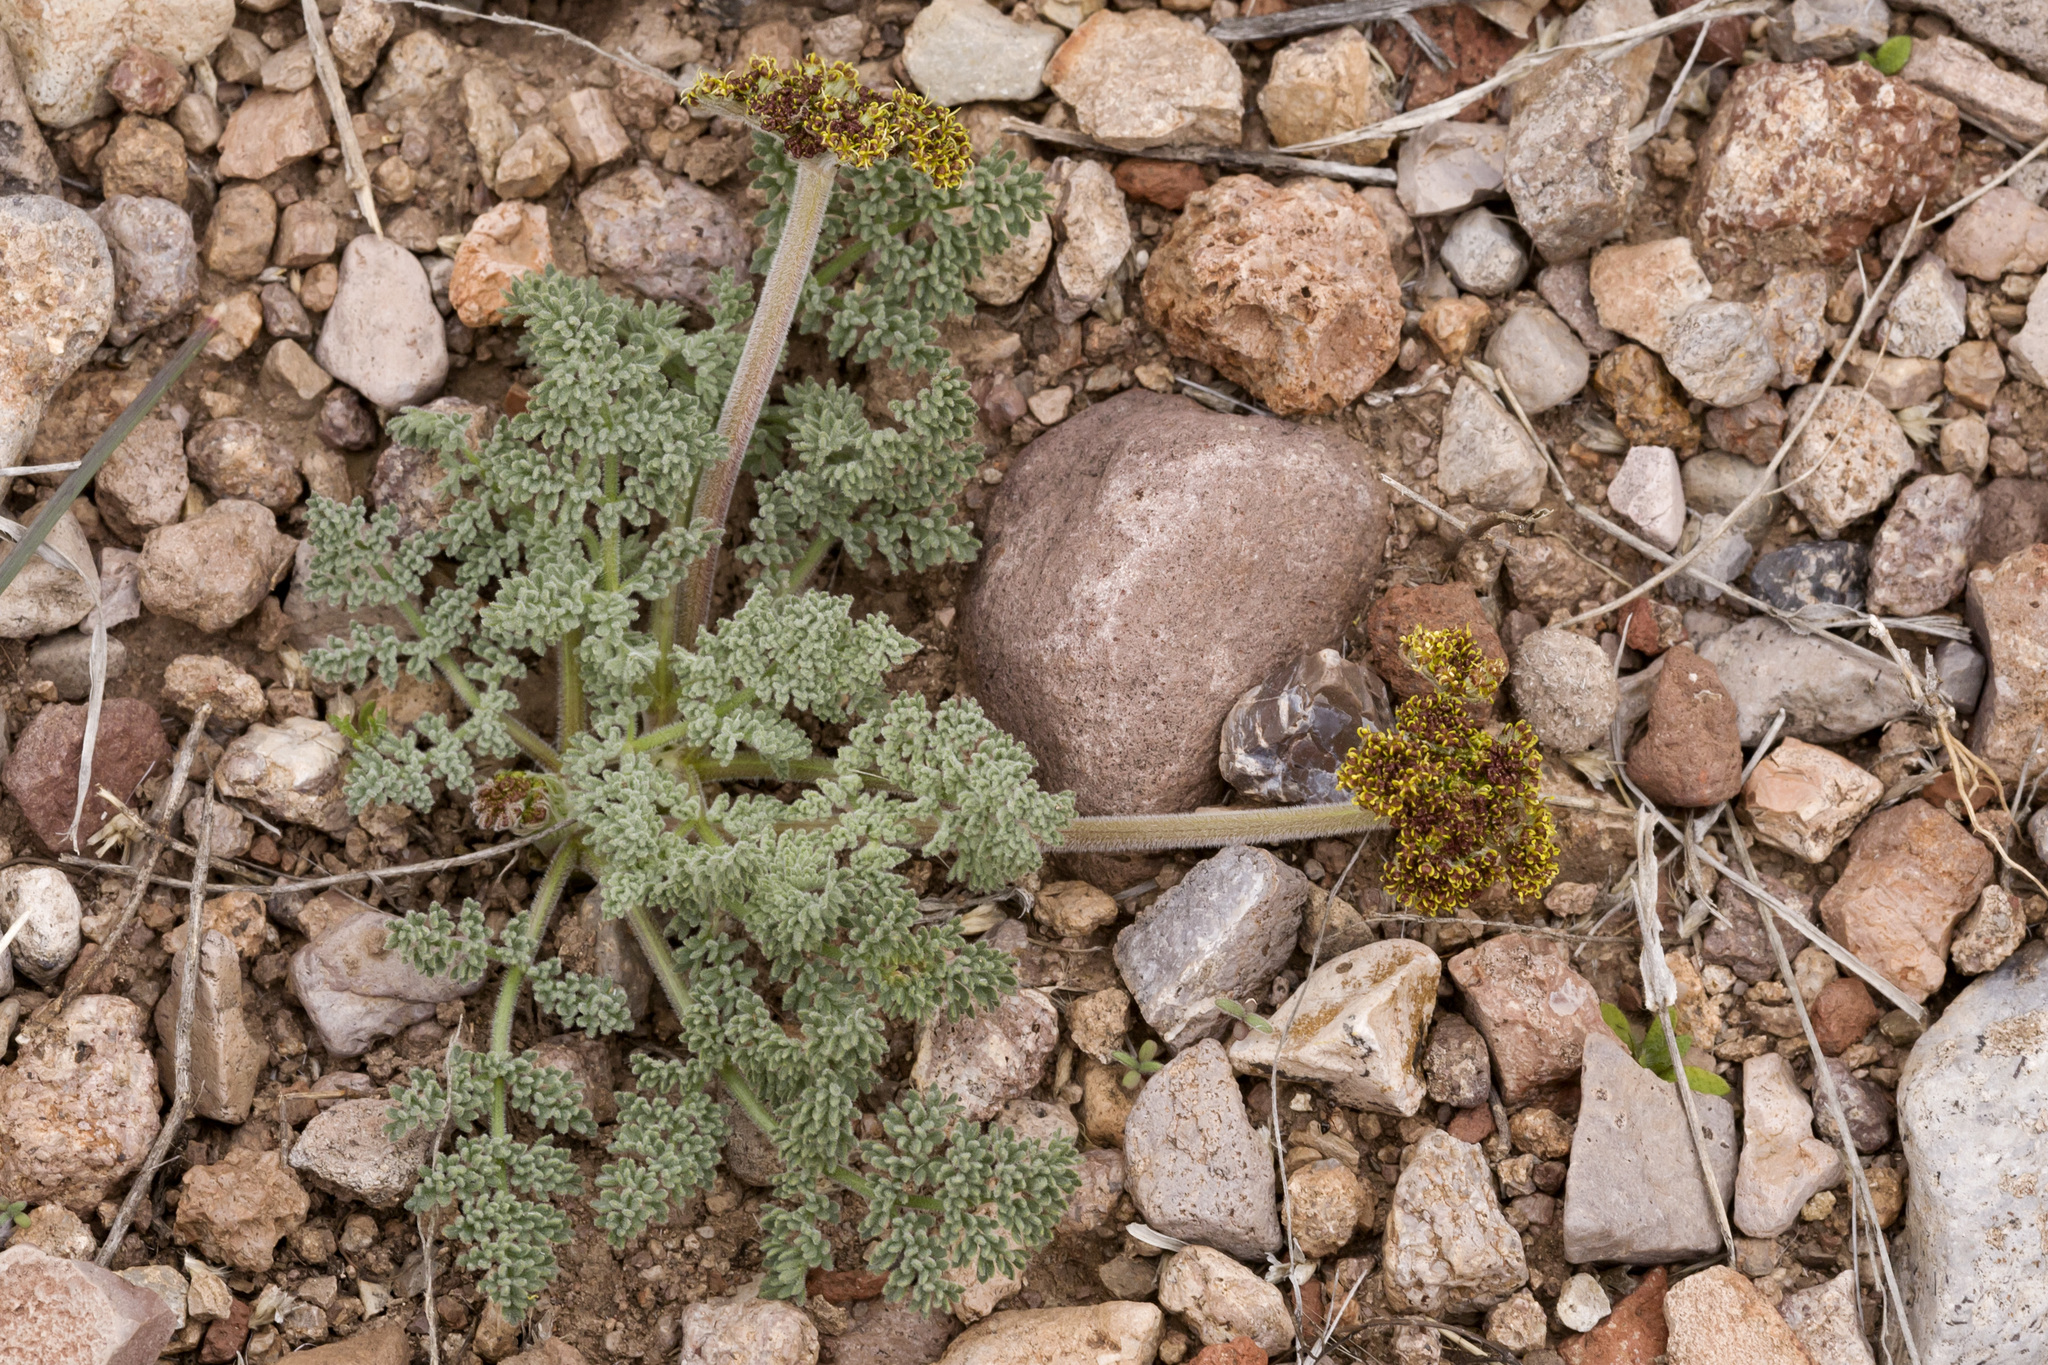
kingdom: Plantae
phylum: Tracheophyta
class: Magnoliopsida
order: Apiales
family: Apiaceae
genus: Lomatium
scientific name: Lomatium foeniculaceum
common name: Desert-parsley
